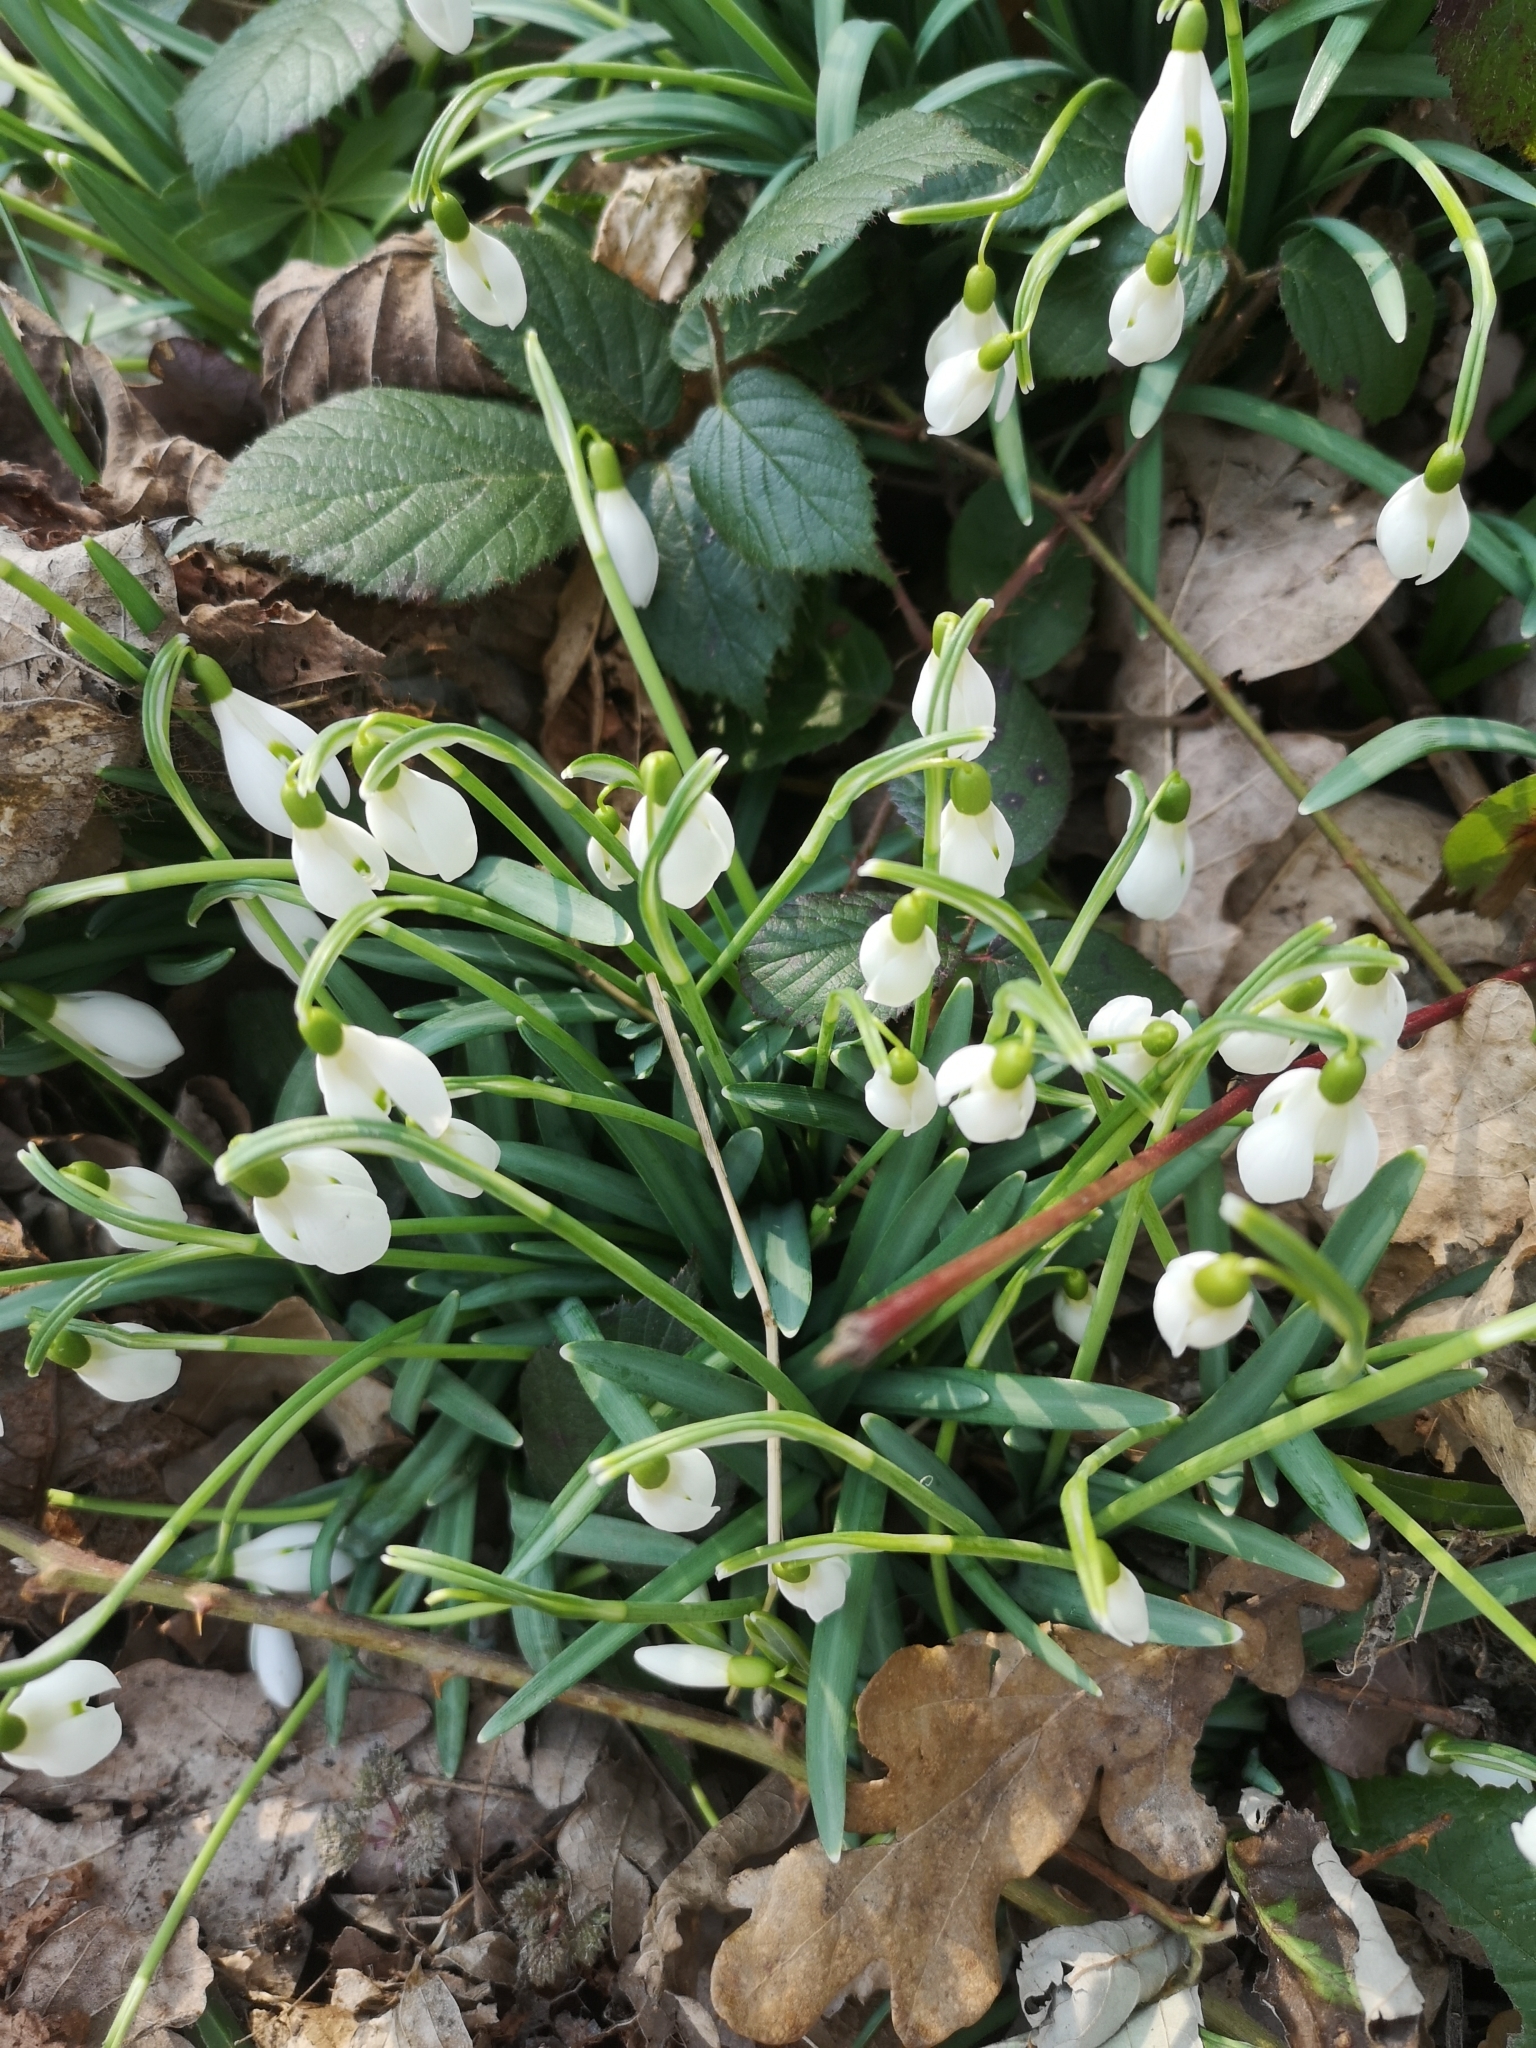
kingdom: Plantae
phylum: Tracheophyta
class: Liliopsida
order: Asparagales
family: Amaryllidaceae
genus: Galanthus
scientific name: Galanthus nivalis
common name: Snowdrop
